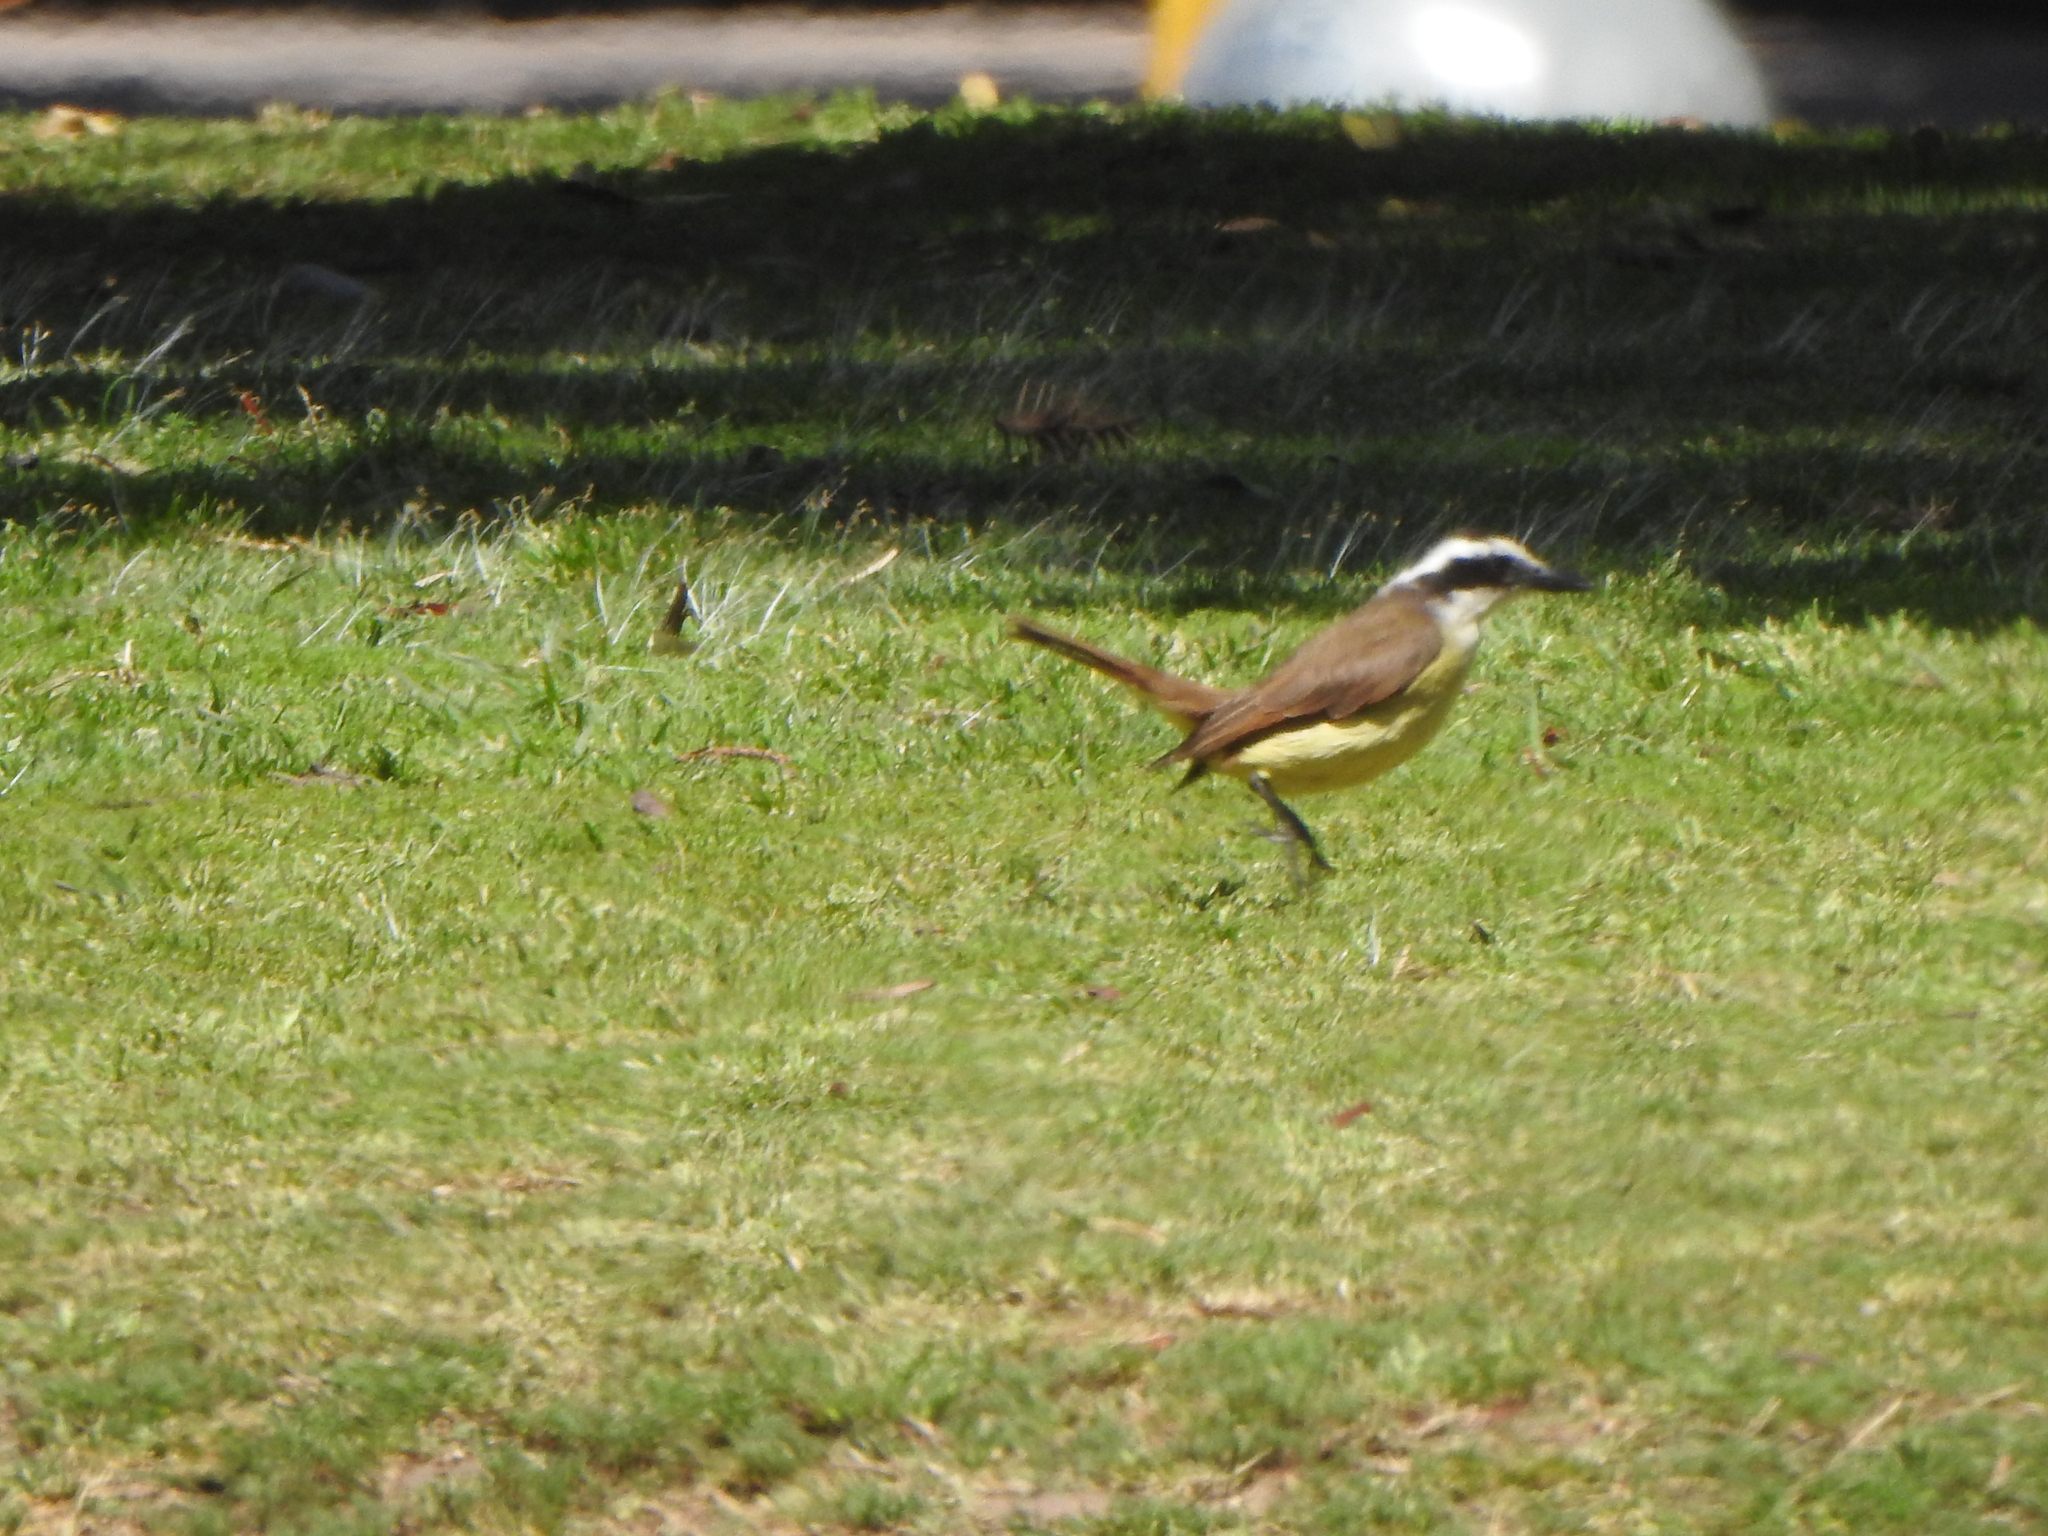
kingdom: Animalia
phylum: Chordata
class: Aves
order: Passeriformes
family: Tyrannidae
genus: Pitangus
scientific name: Pitangus sulphuratus
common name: Great kiskadee
